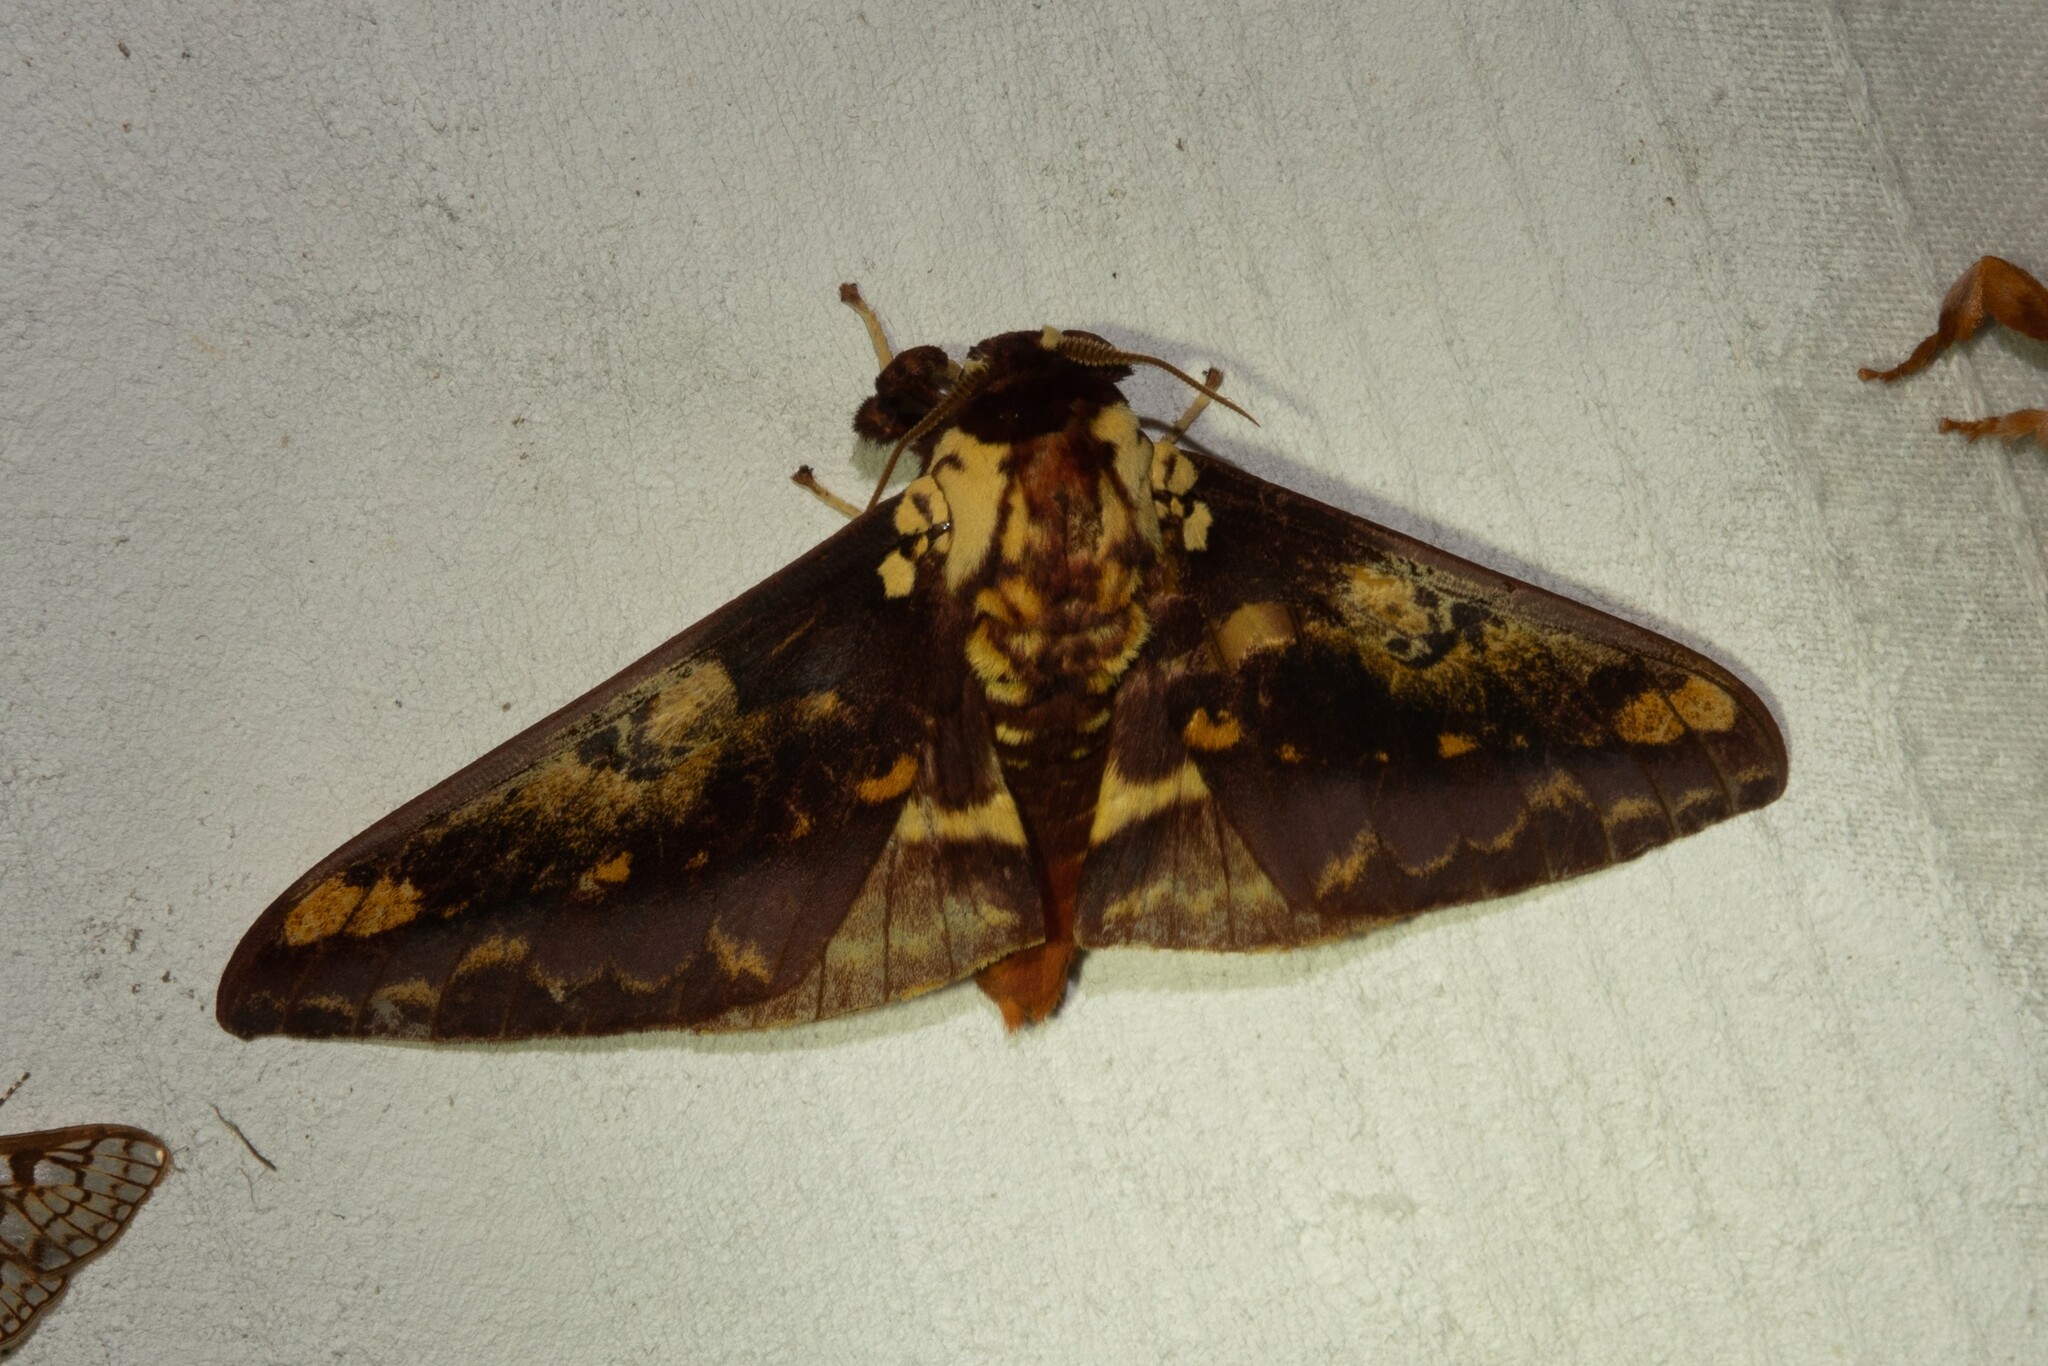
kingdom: Animalia
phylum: Arthropoda
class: Insecta
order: Lepidoptera
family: Saturniidae
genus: Citheronia
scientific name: Citheronia phoronea
